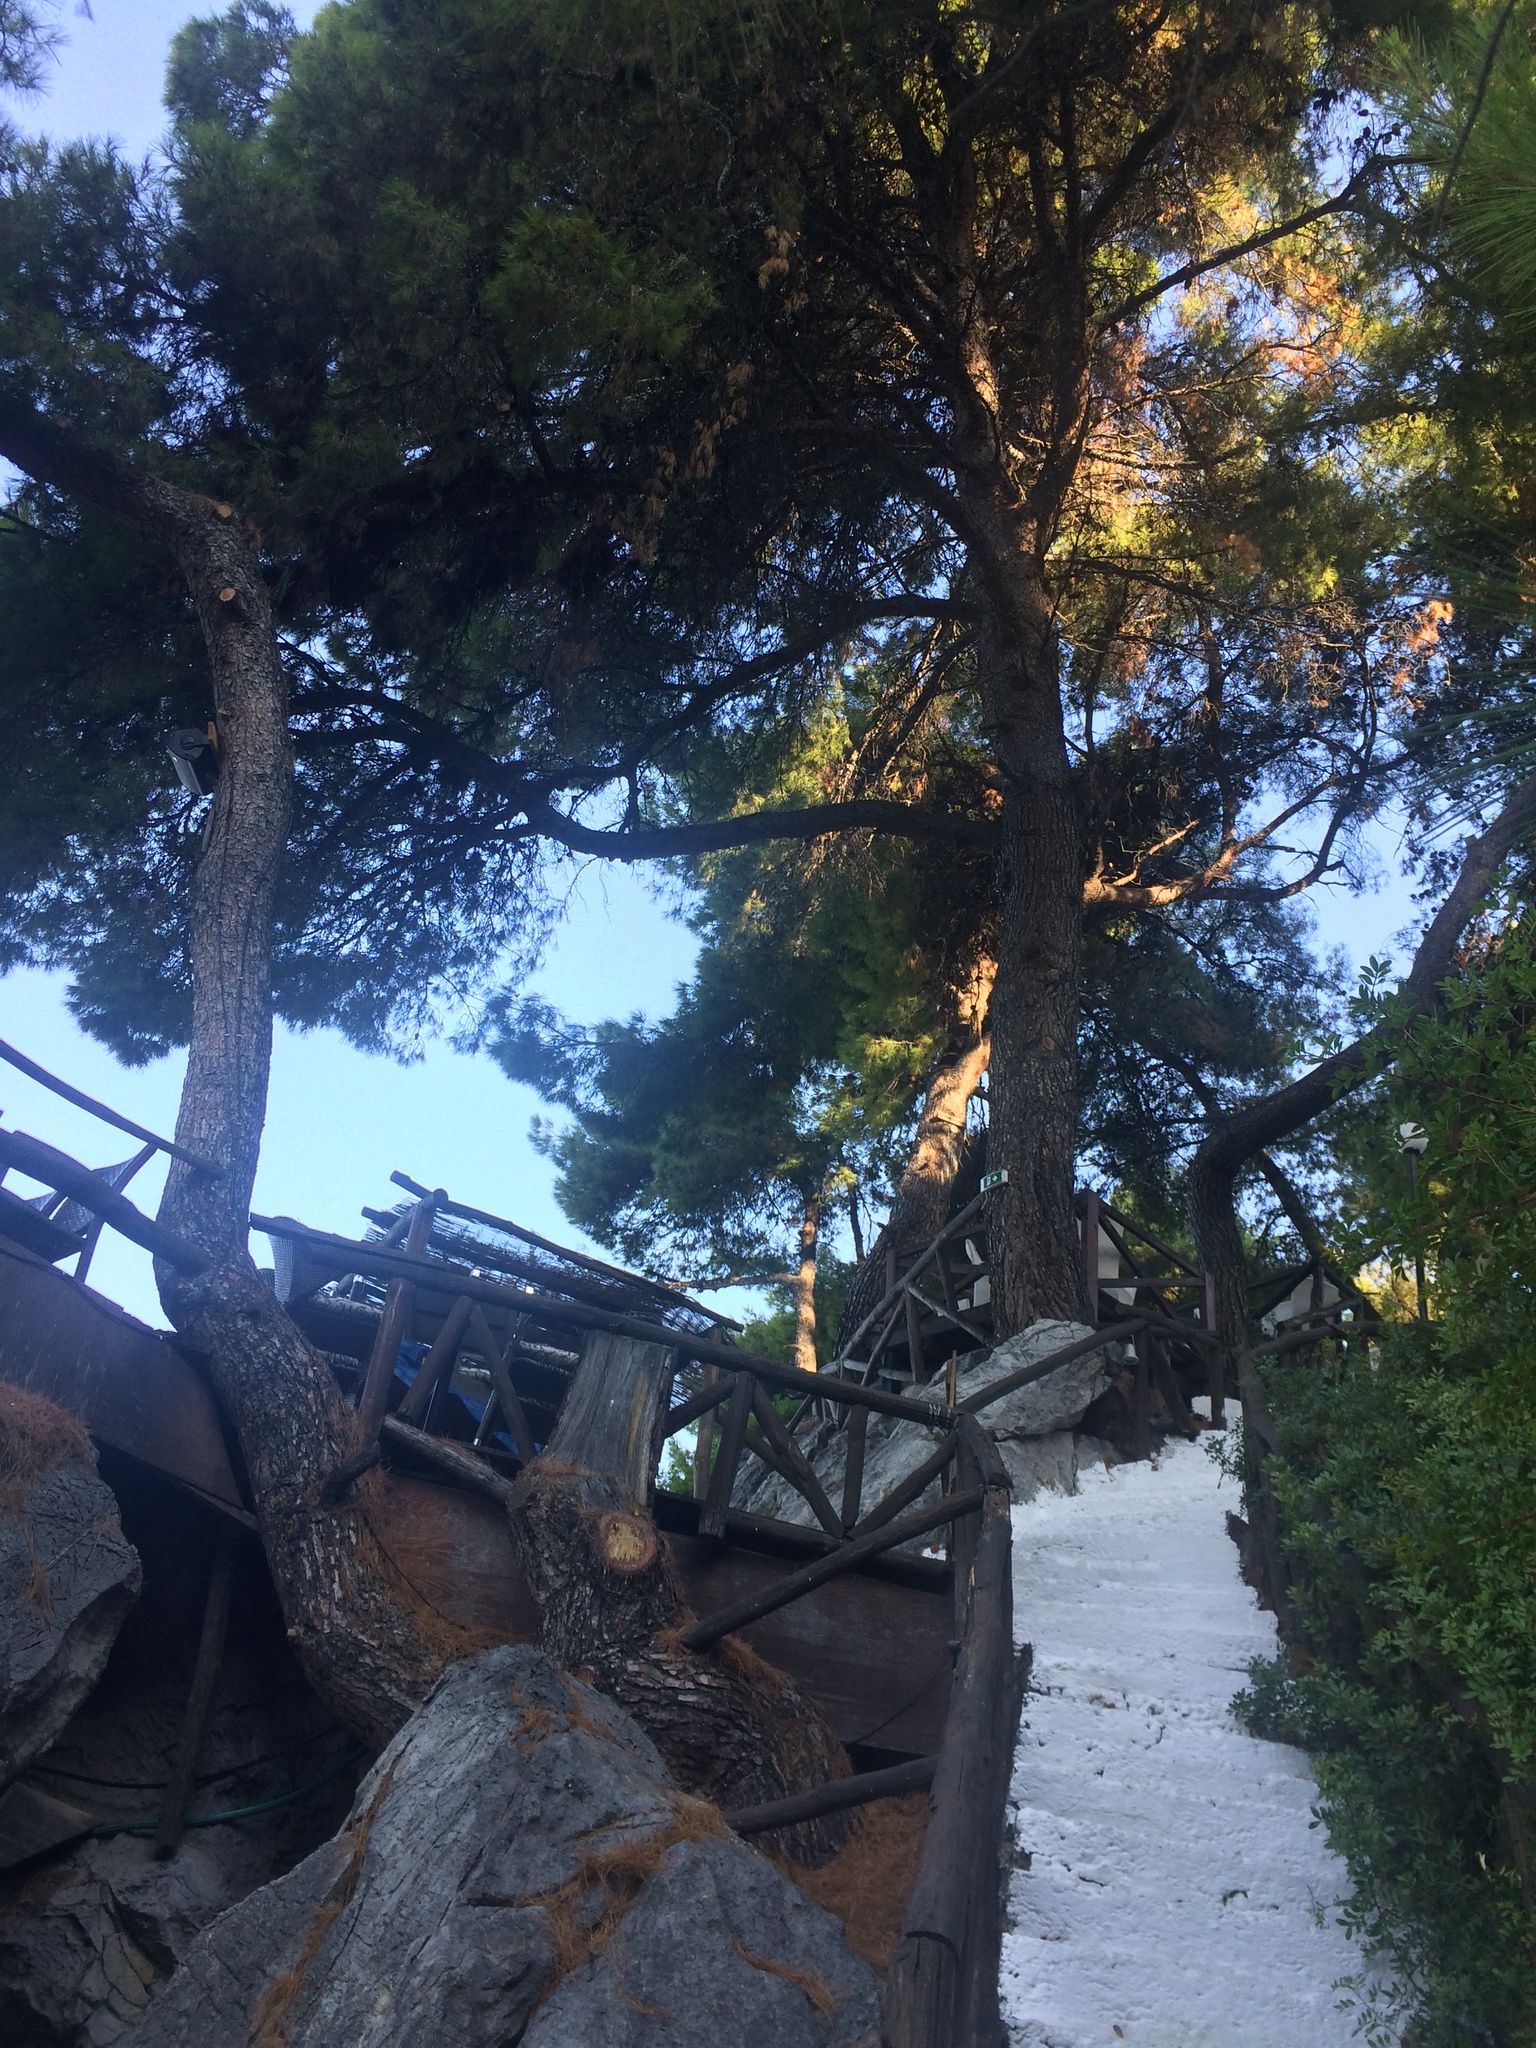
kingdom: Plantae
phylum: Tracheophyta
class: Pinopsida
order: Pinales
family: Pinaceae
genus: Pinus
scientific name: Pinus halepensis
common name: Aleppo pine
